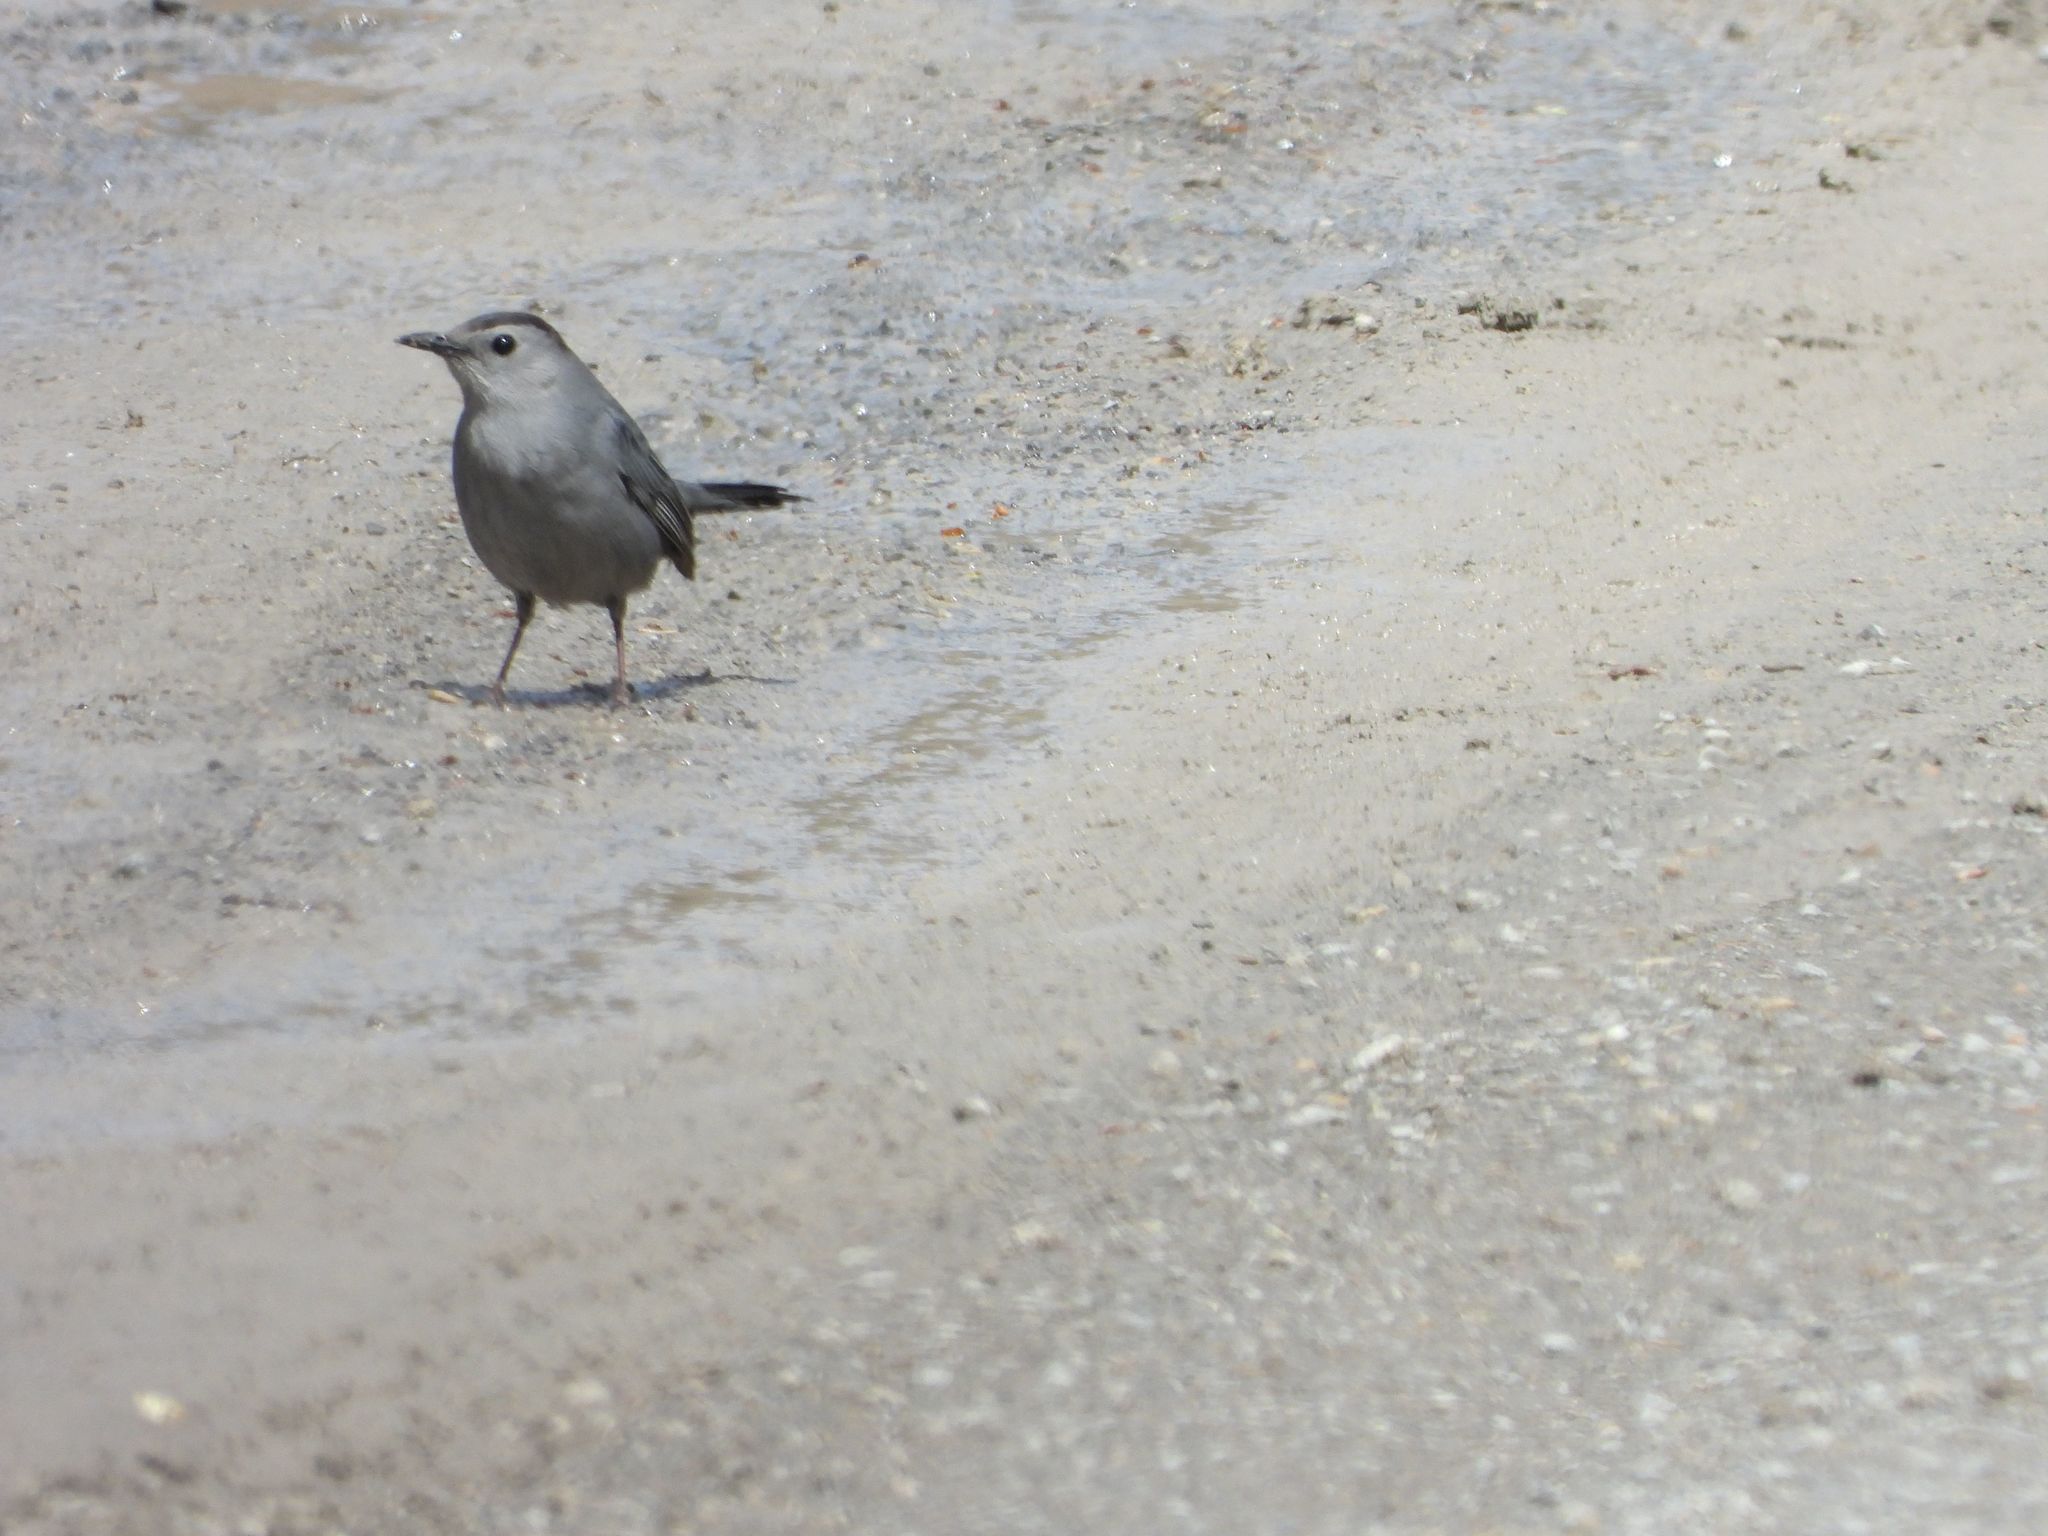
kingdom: Animalia
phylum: Chordata
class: Aves
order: Passeriformes
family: Mimidae
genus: Dumetella
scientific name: Dumetella carolinensis
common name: Gray catbird
